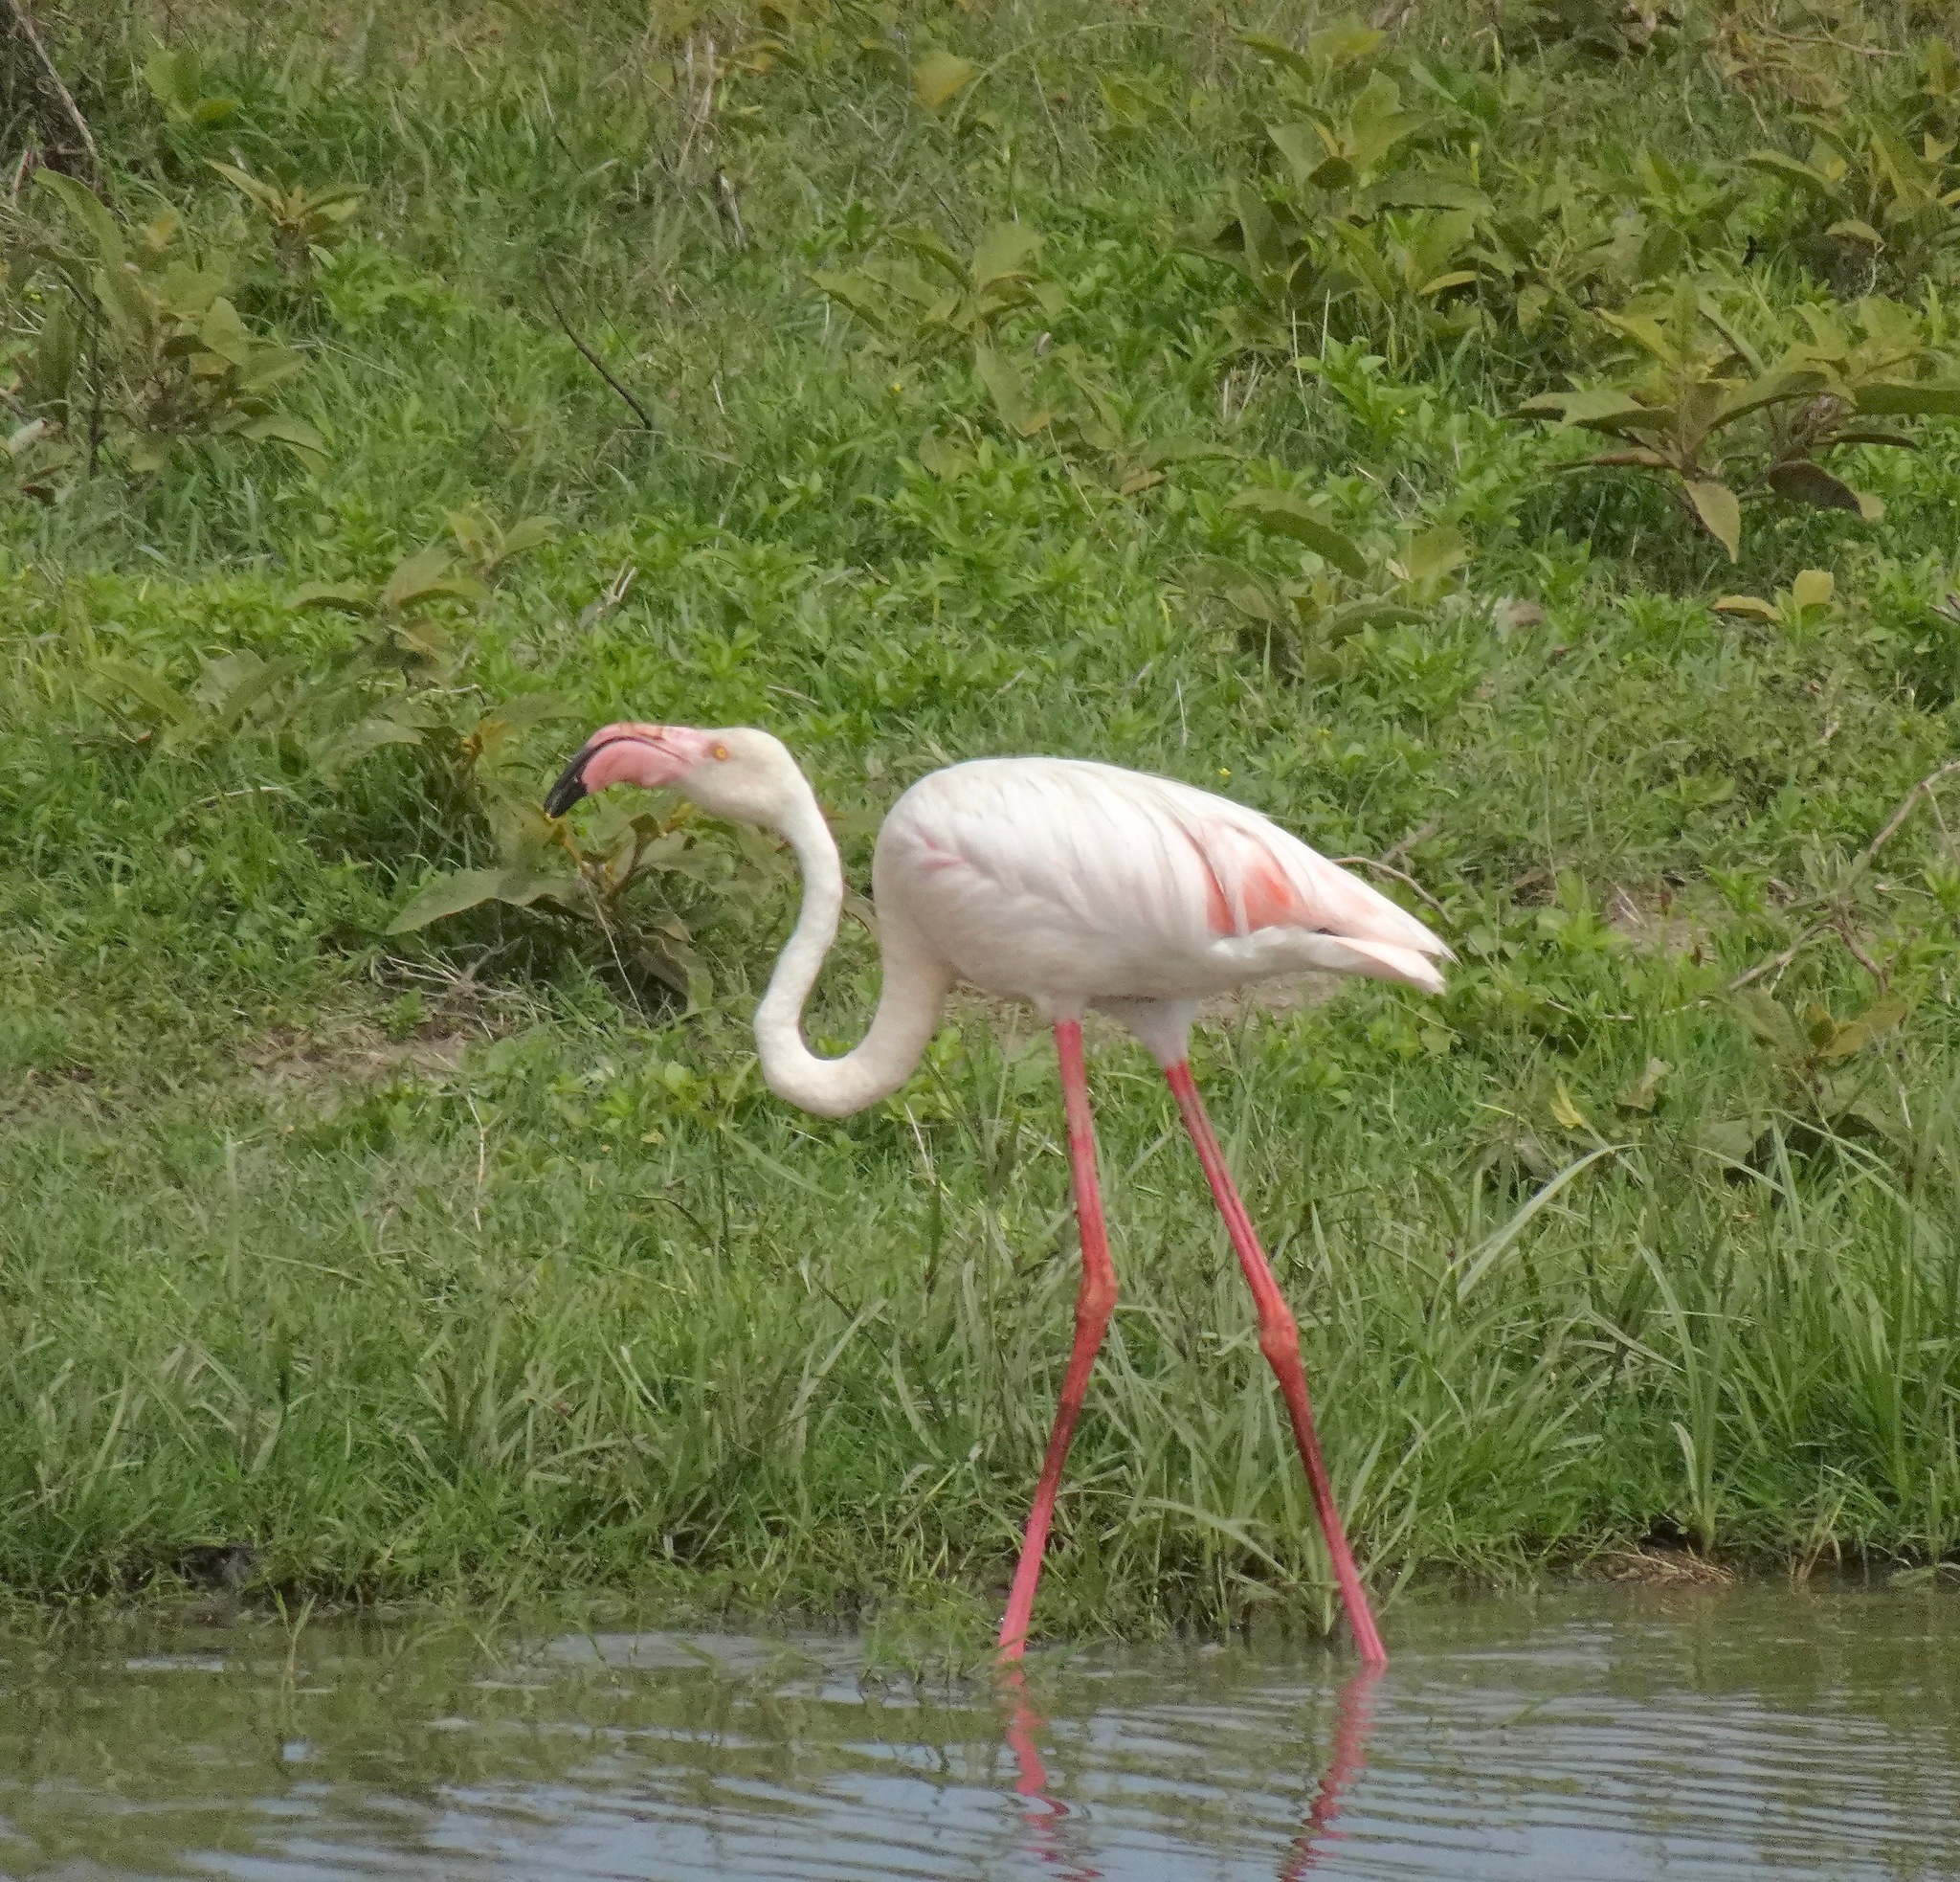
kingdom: Animalia
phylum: Chordata
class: Aves
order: Phoenicopteriformes
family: Phoenicopteridae
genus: Phoenicopterus
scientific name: Phoenicopterus roseus
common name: Greater flamingo
